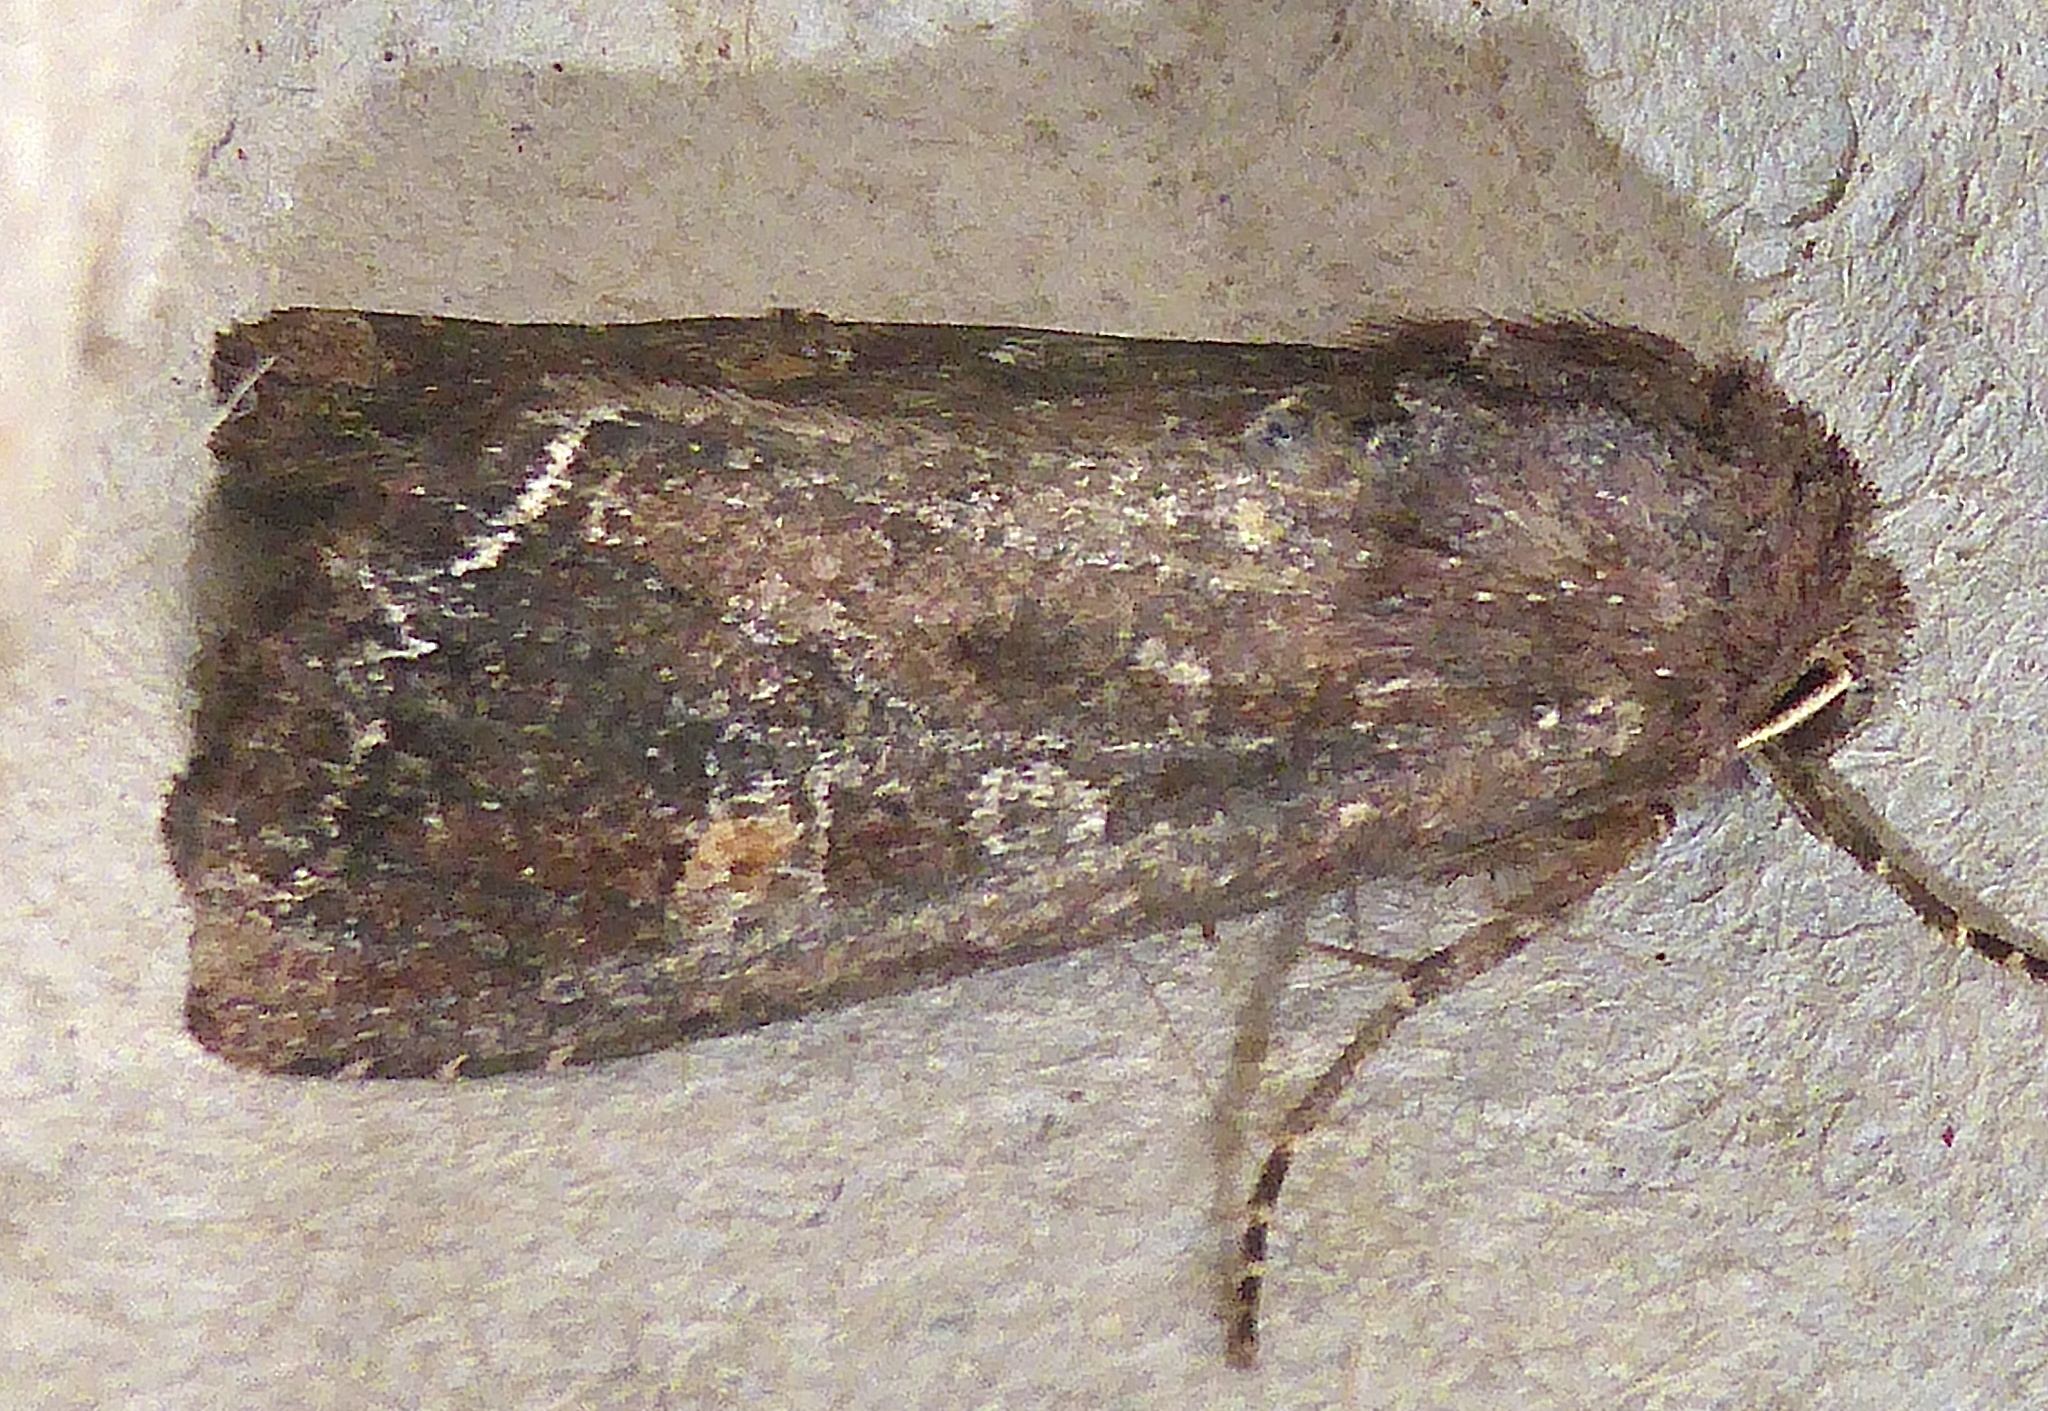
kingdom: Animalia
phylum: Arthropoda
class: Insecta
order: Lepidoptera
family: Noctuidae
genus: Lacanobia
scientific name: Lacanobia oleracea
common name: Bright-line brown-eye
